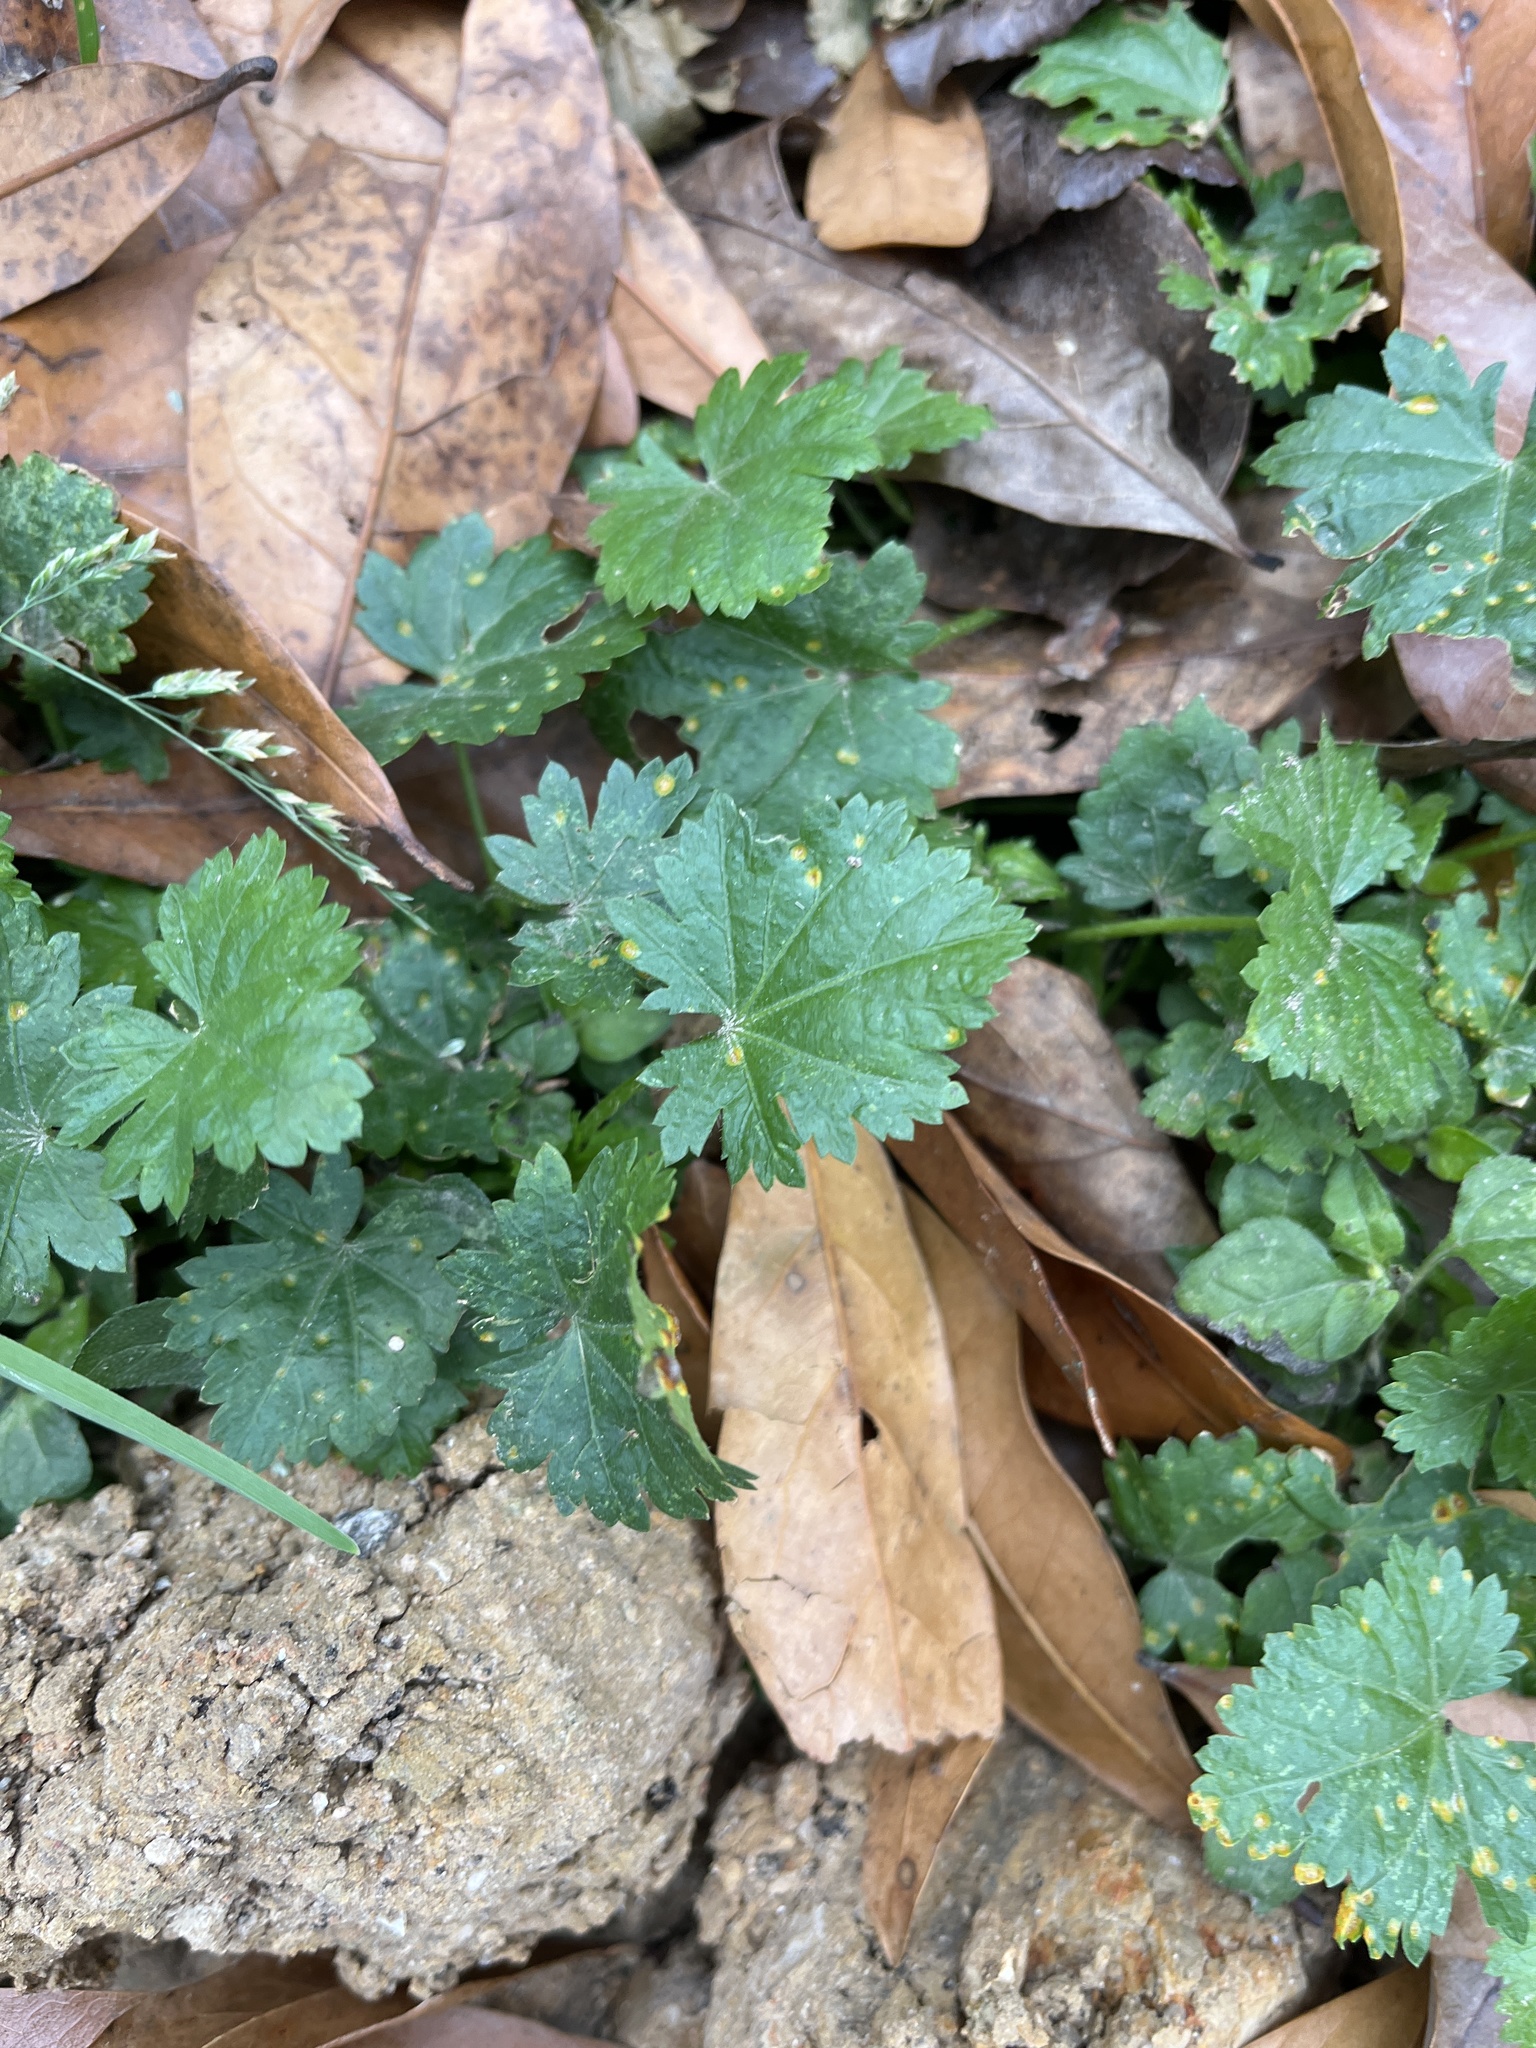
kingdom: Plantae
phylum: Tracheophyta
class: Magnoliopsida
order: Malvales
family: Malvaceae
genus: Modiola
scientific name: Modiola caroliniana
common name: Carolina bristlemallow
